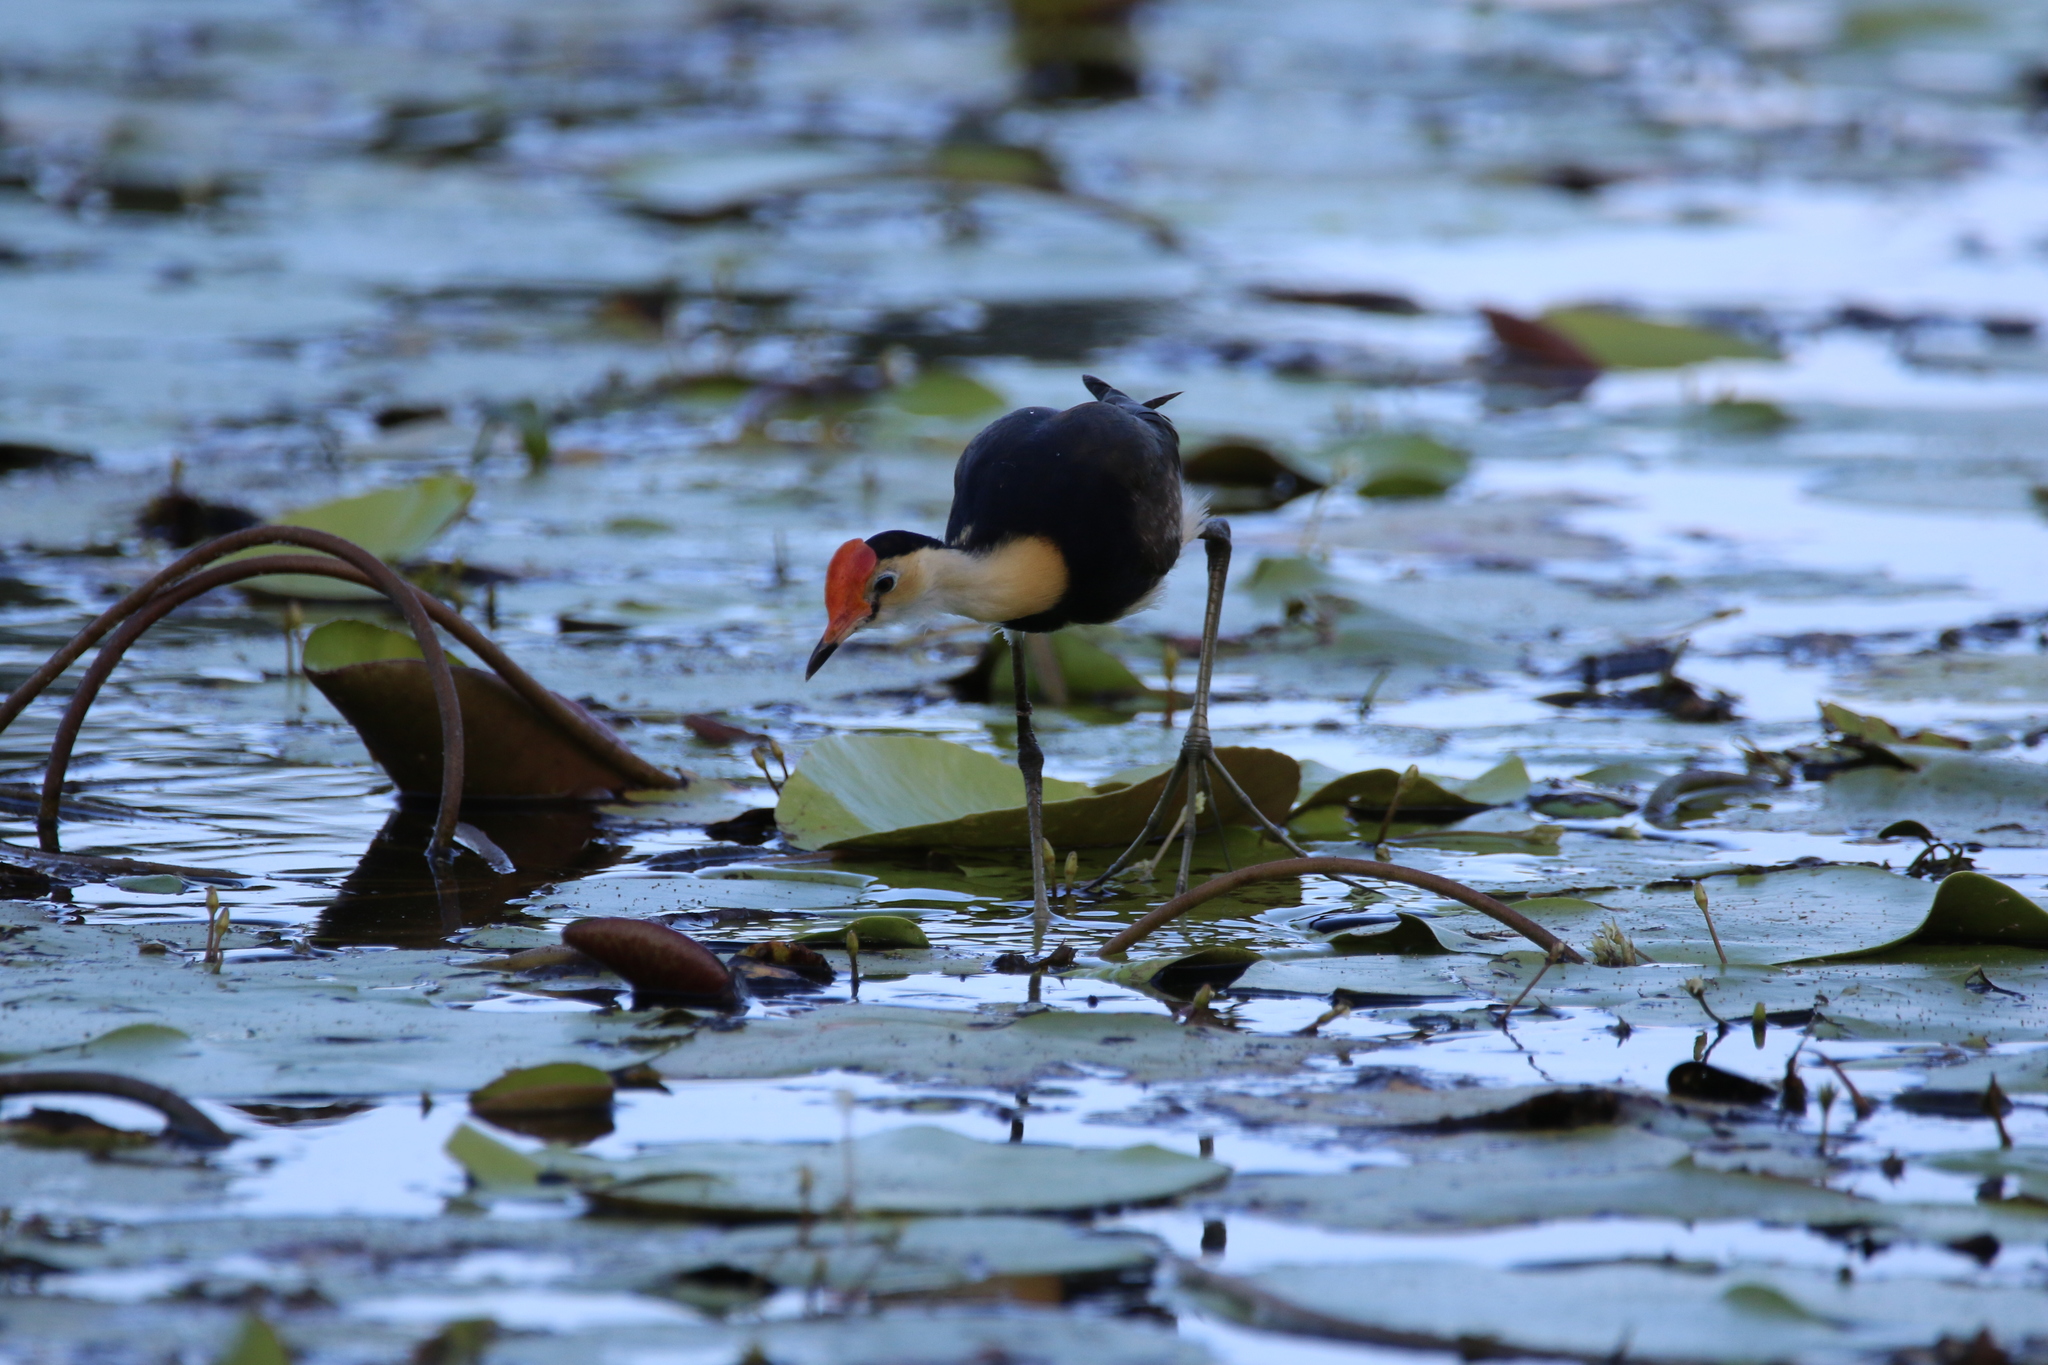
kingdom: Animalia
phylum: Chordata
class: Aves
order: Charadriiformes
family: Jacanidae
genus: Irediparra
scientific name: Irediparra gallinacea
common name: Comb-crested jacana
